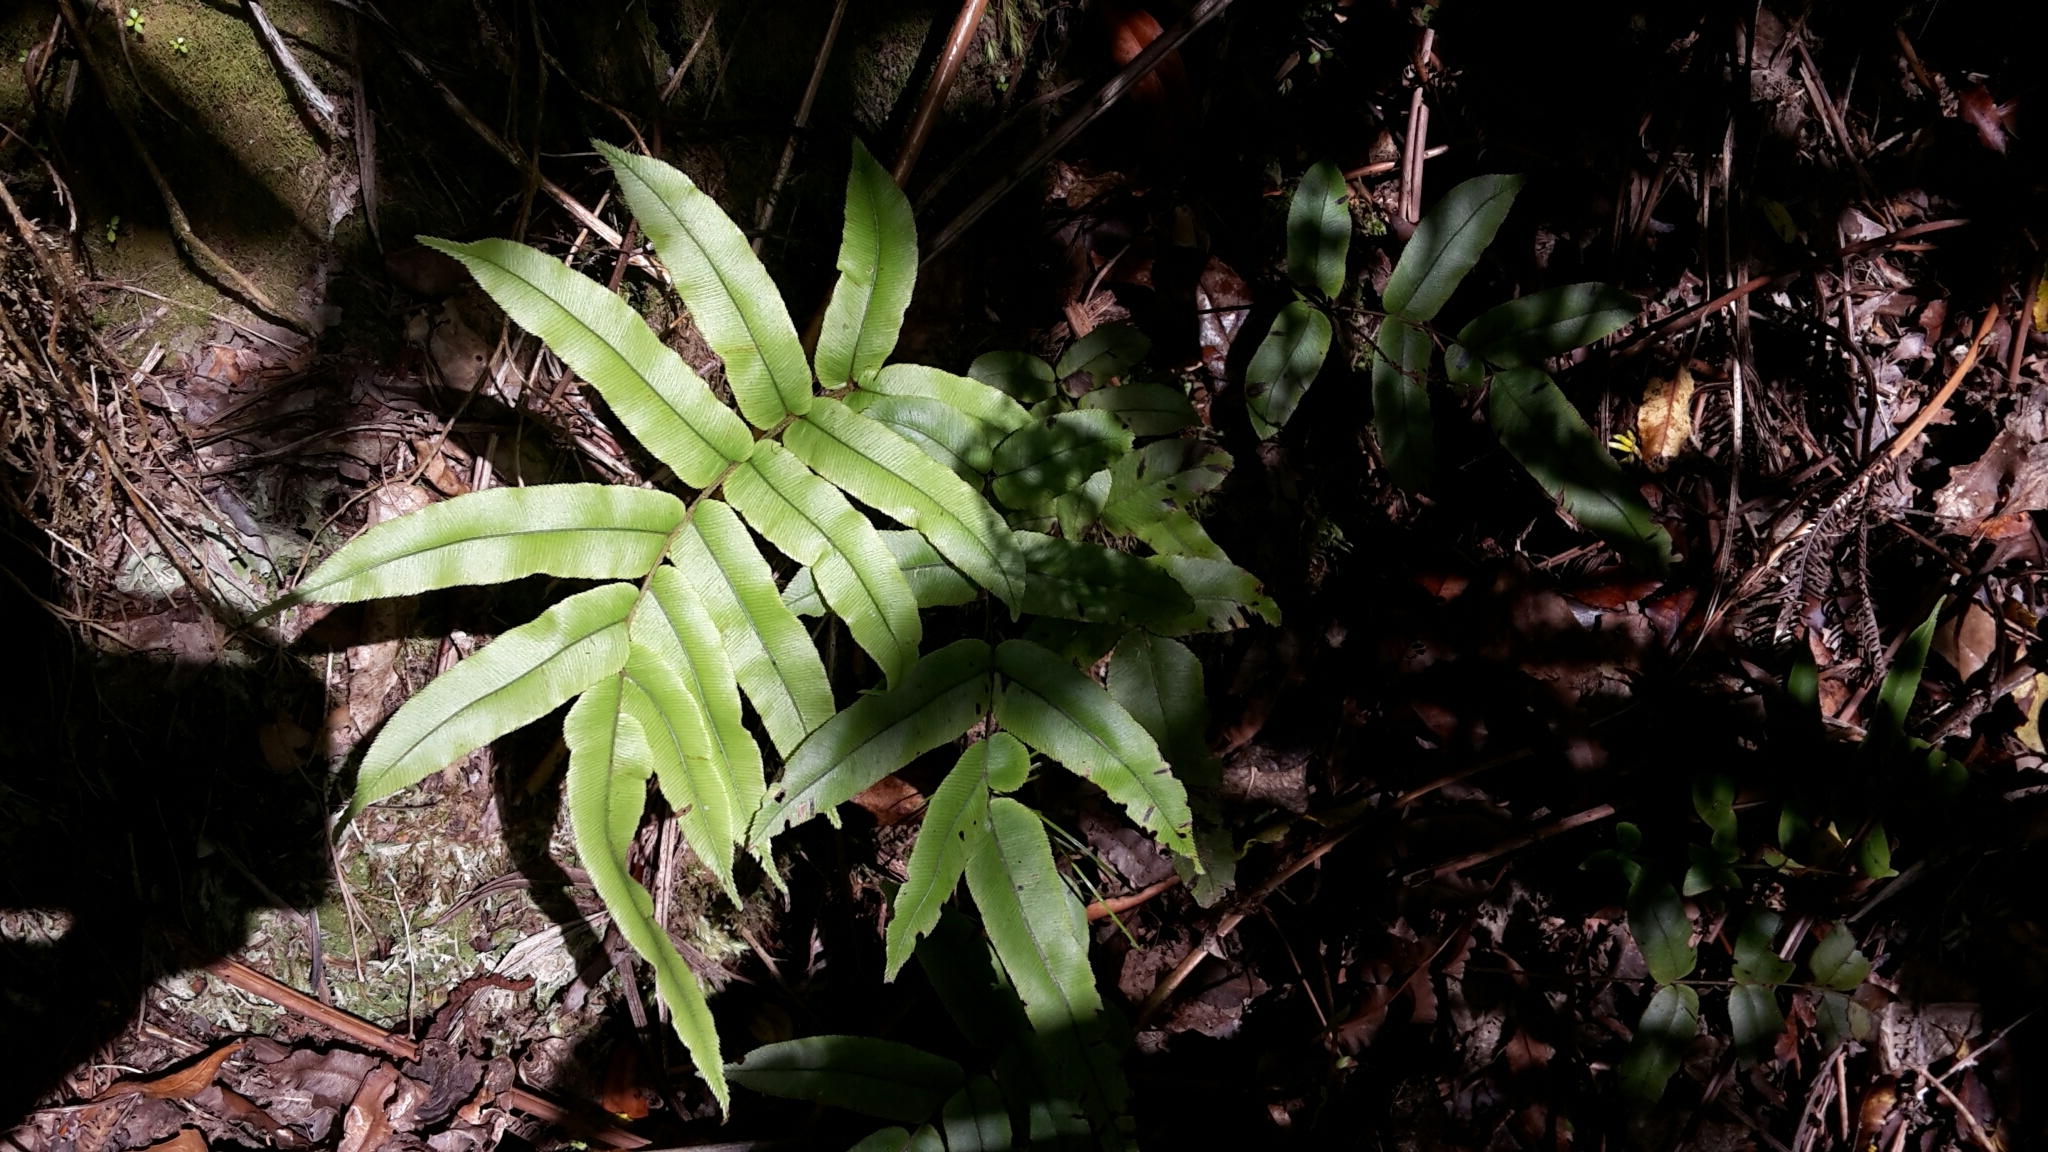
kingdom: Plantae
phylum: Tracheophyta
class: Polypodiopsida
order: Polypodiales
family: Blechnaceae
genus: Parablechnum
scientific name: Parablechnum procerum
